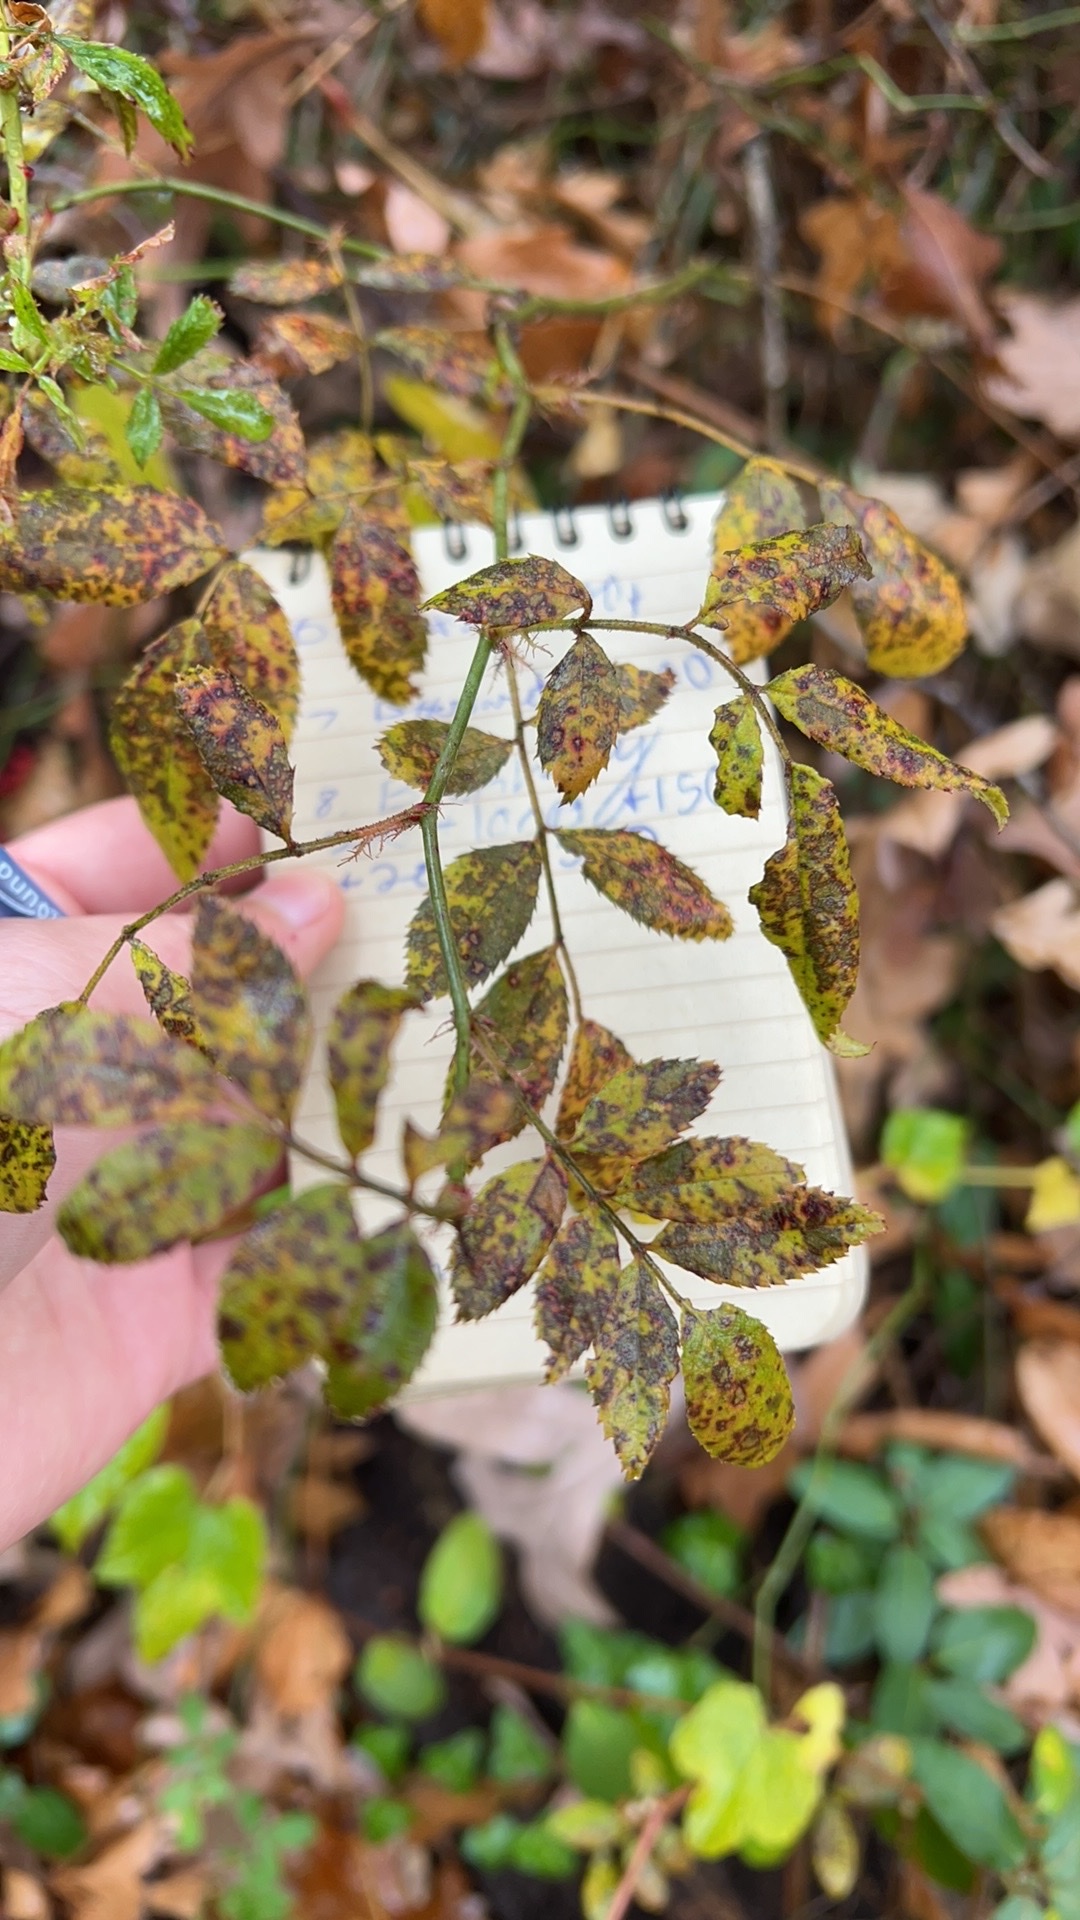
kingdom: Plantae
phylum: Tracheophyta
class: Magnoliopsida
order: Rosales
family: Rosaceae
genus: Rosa
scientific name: Rosa multiflora
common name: Multiflora rose
